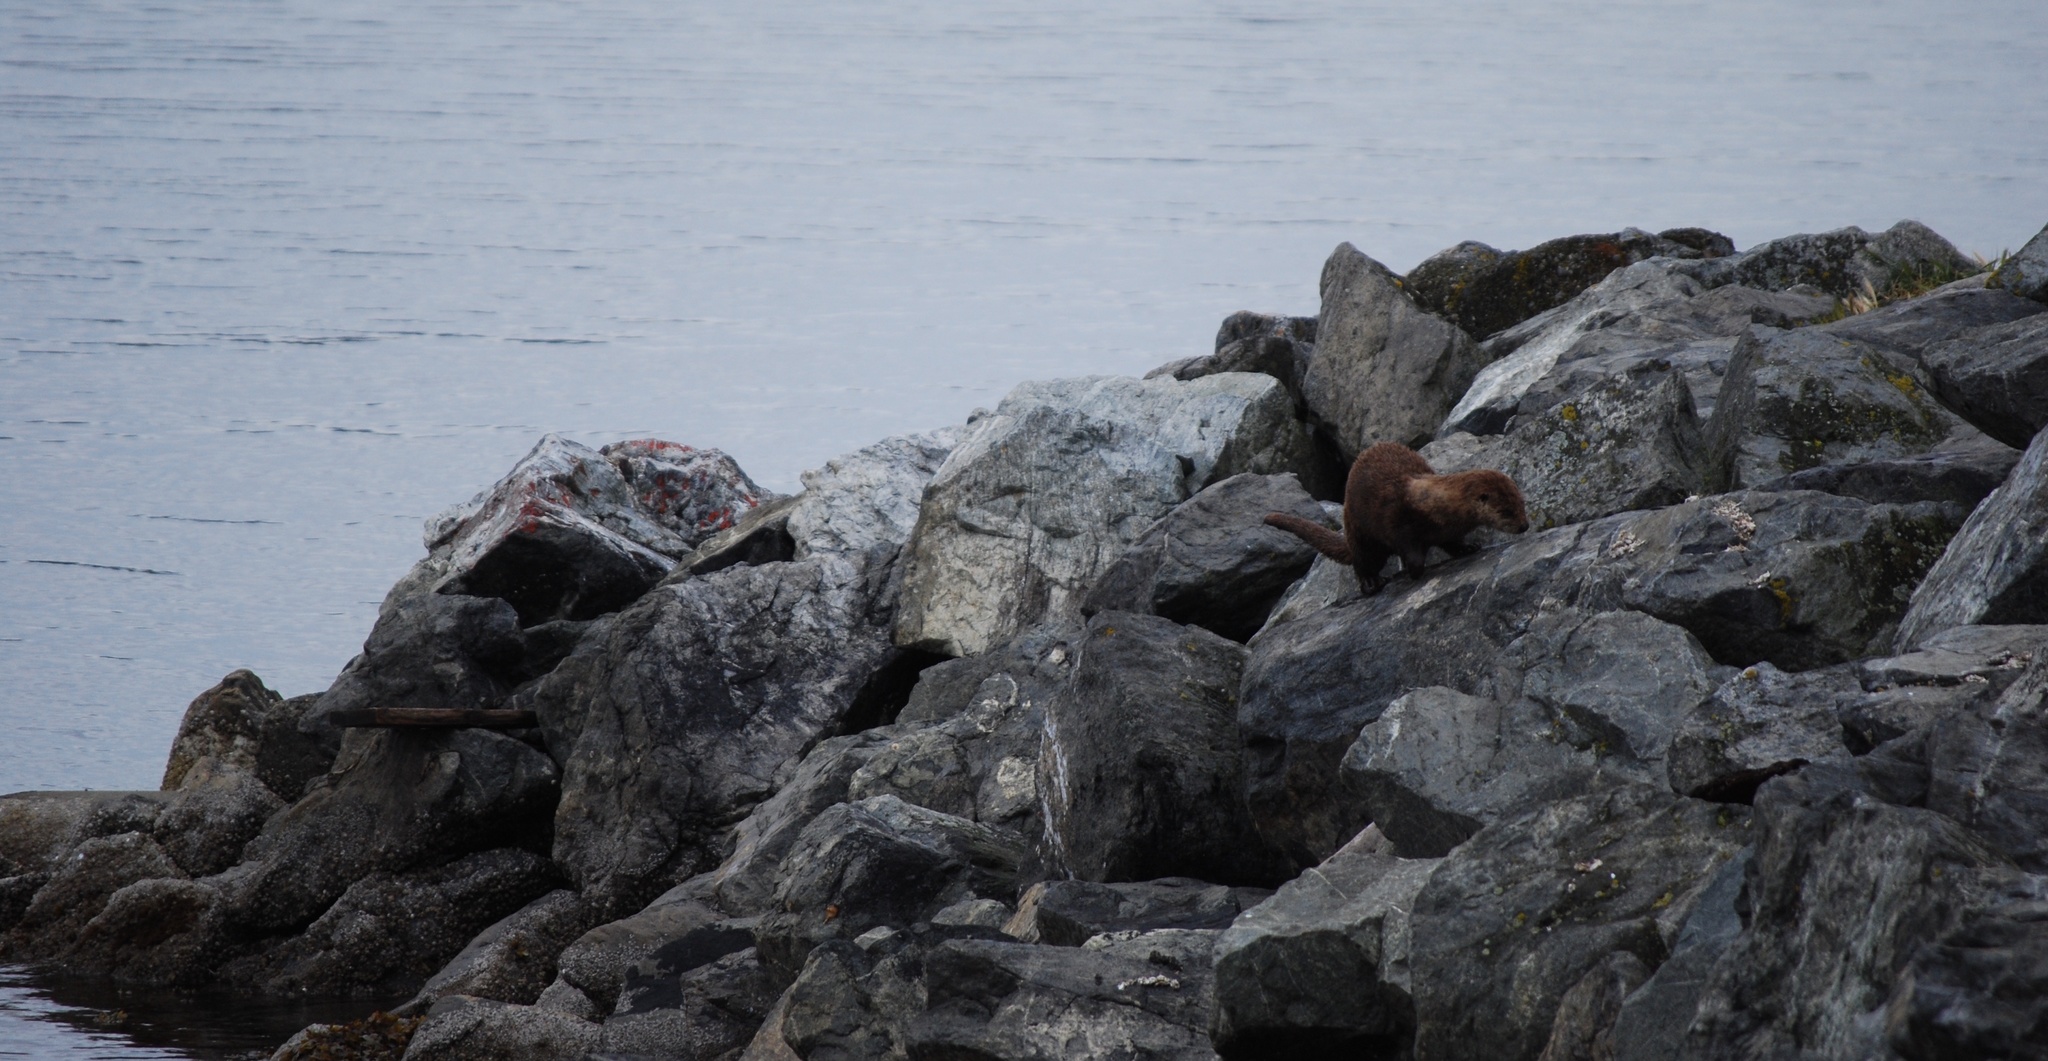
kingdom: Animalia
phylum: Chordata
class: Mammalia
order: Carnivora
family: Mustelidae
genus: Lontra
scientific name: Lontra canadensis
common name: North american river otter
